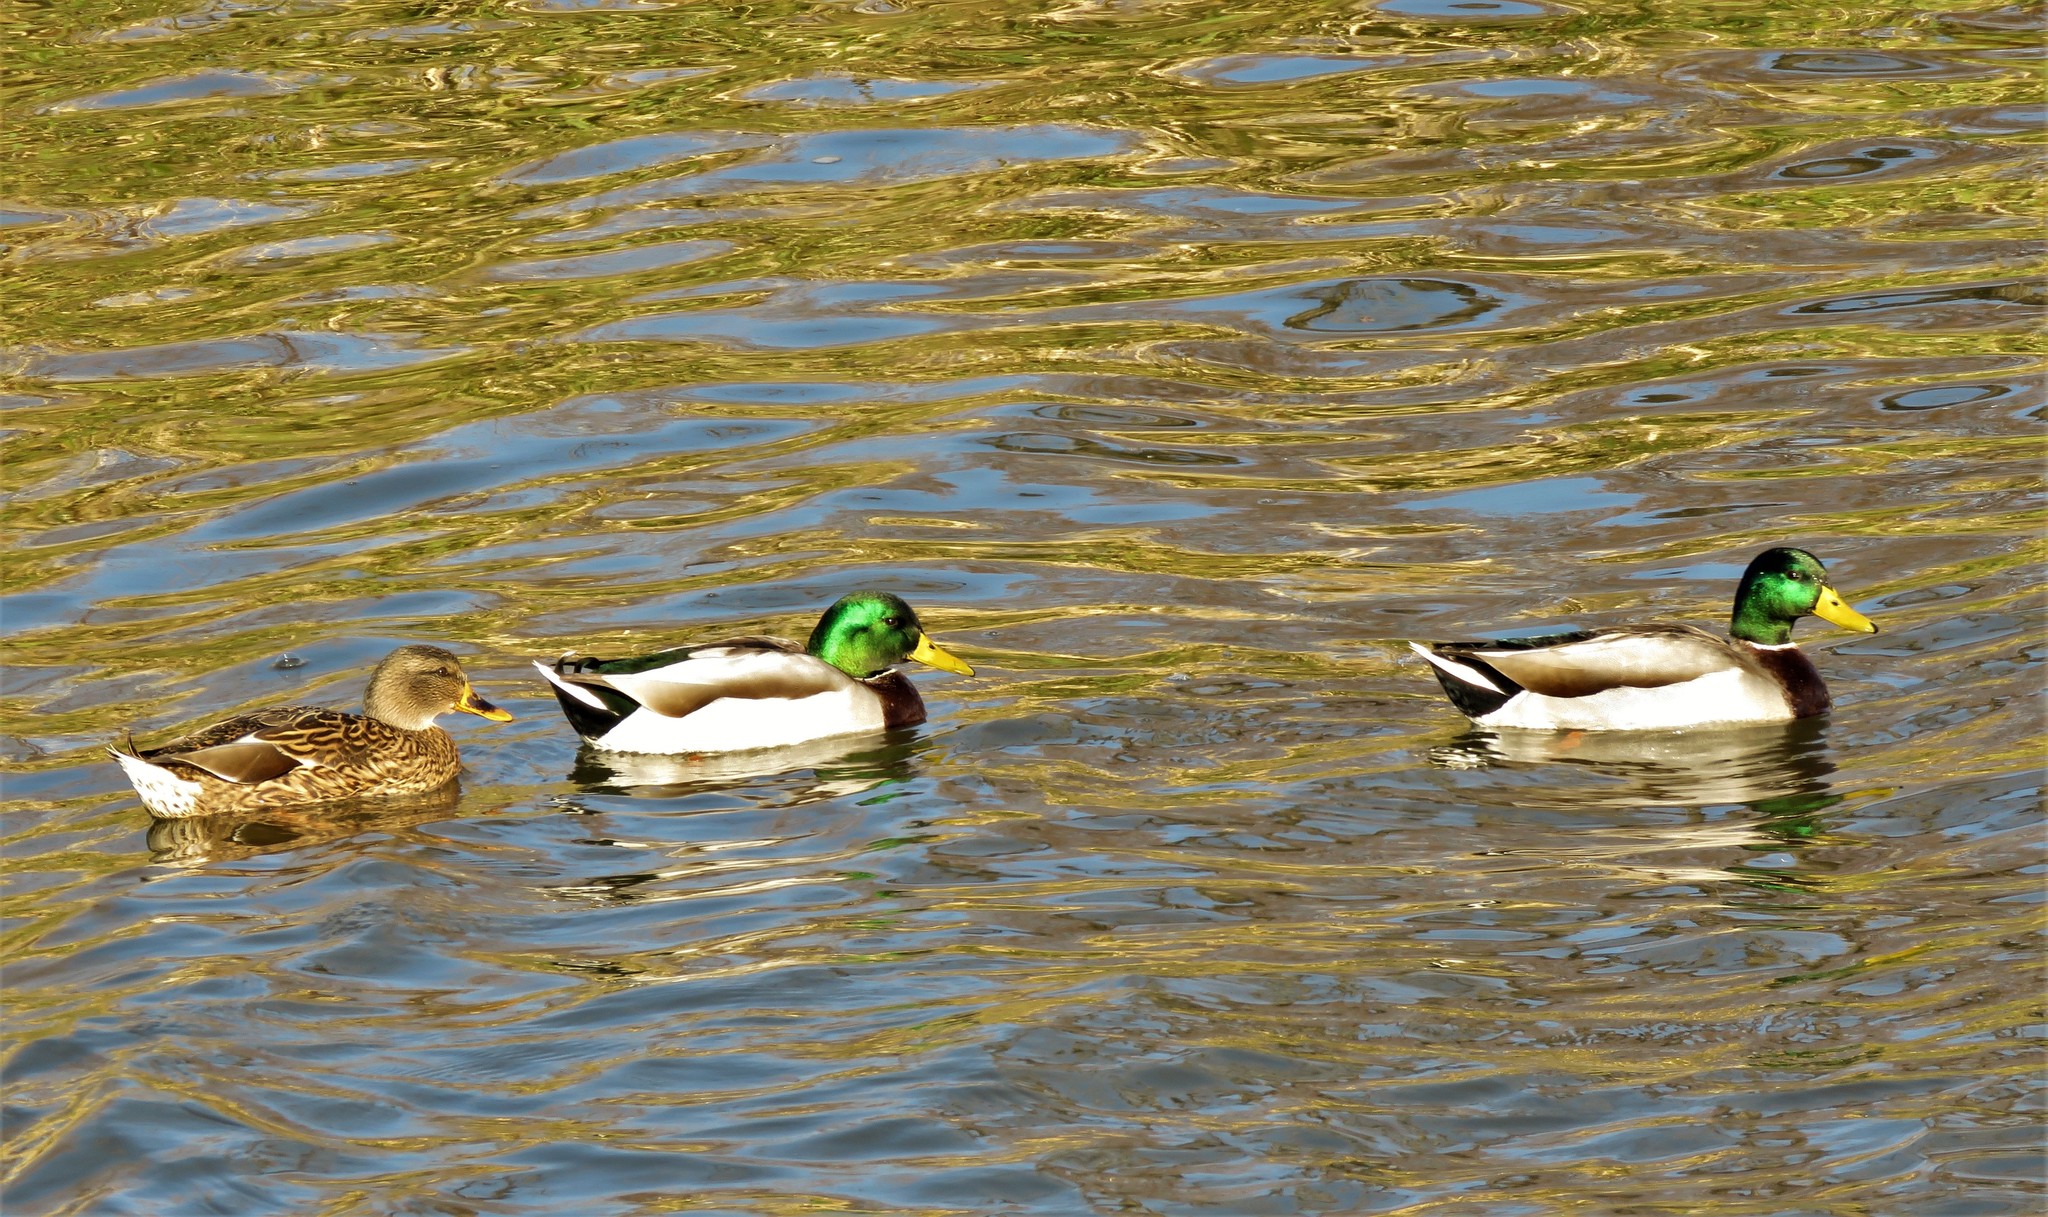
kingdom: Animalia
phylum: Chordata
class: Aves
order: Anseriformes
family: Anatidae
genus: Anas
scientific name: Anas platyrhynchos
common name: Mallard
